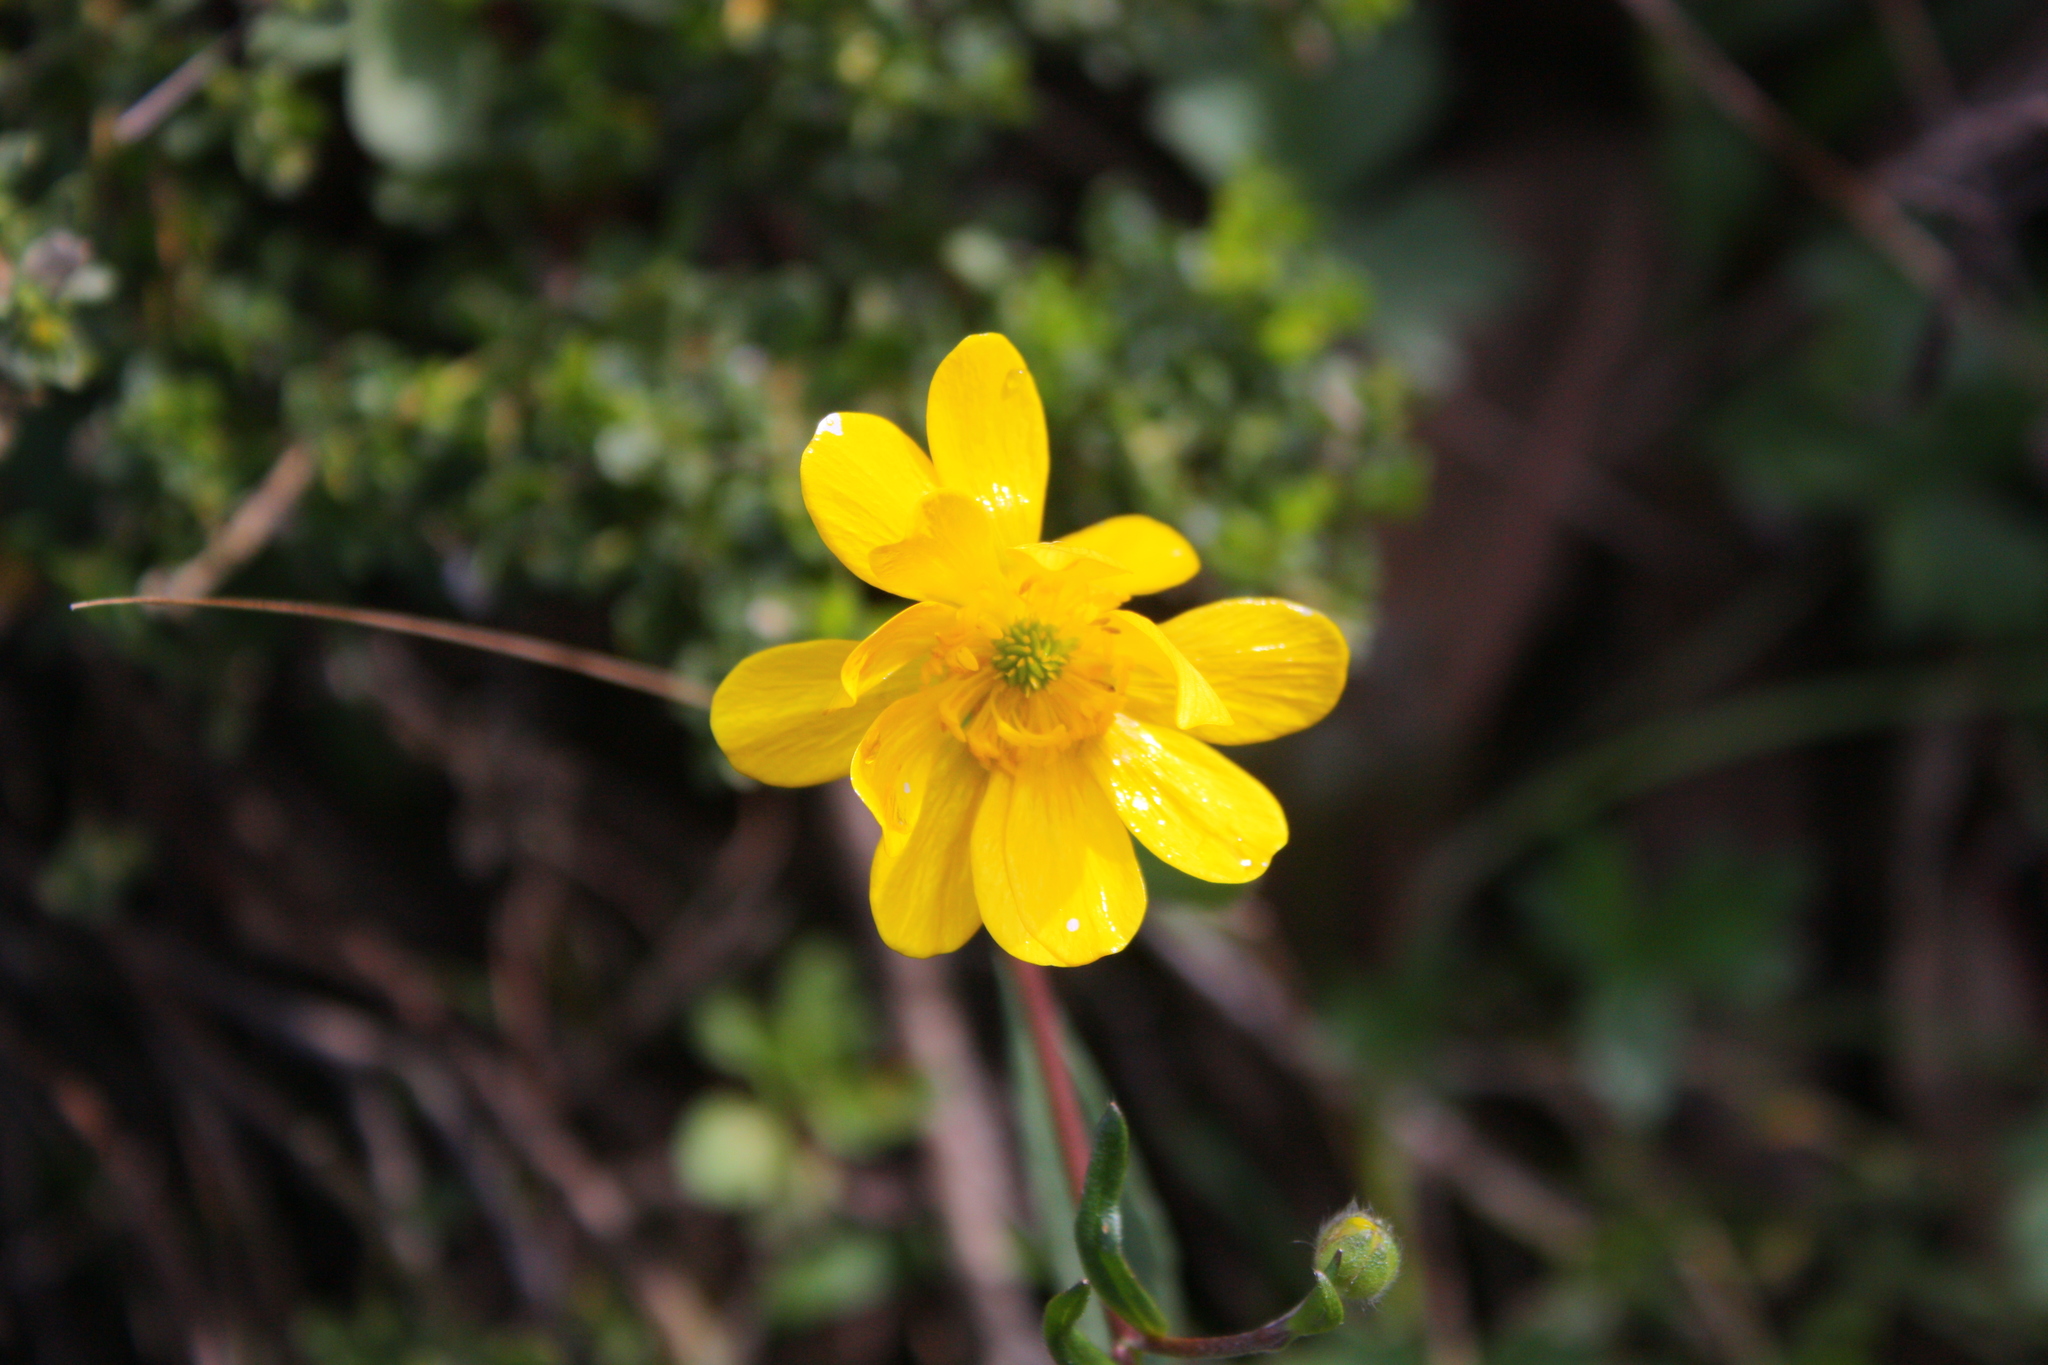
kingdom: Plantae
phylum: Tracheophyta
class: Magnoliopsida
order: Ranunculales
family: Ranunculaceae
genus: Ranunculus
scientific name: Ranunculus californicus
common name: California buttercup
